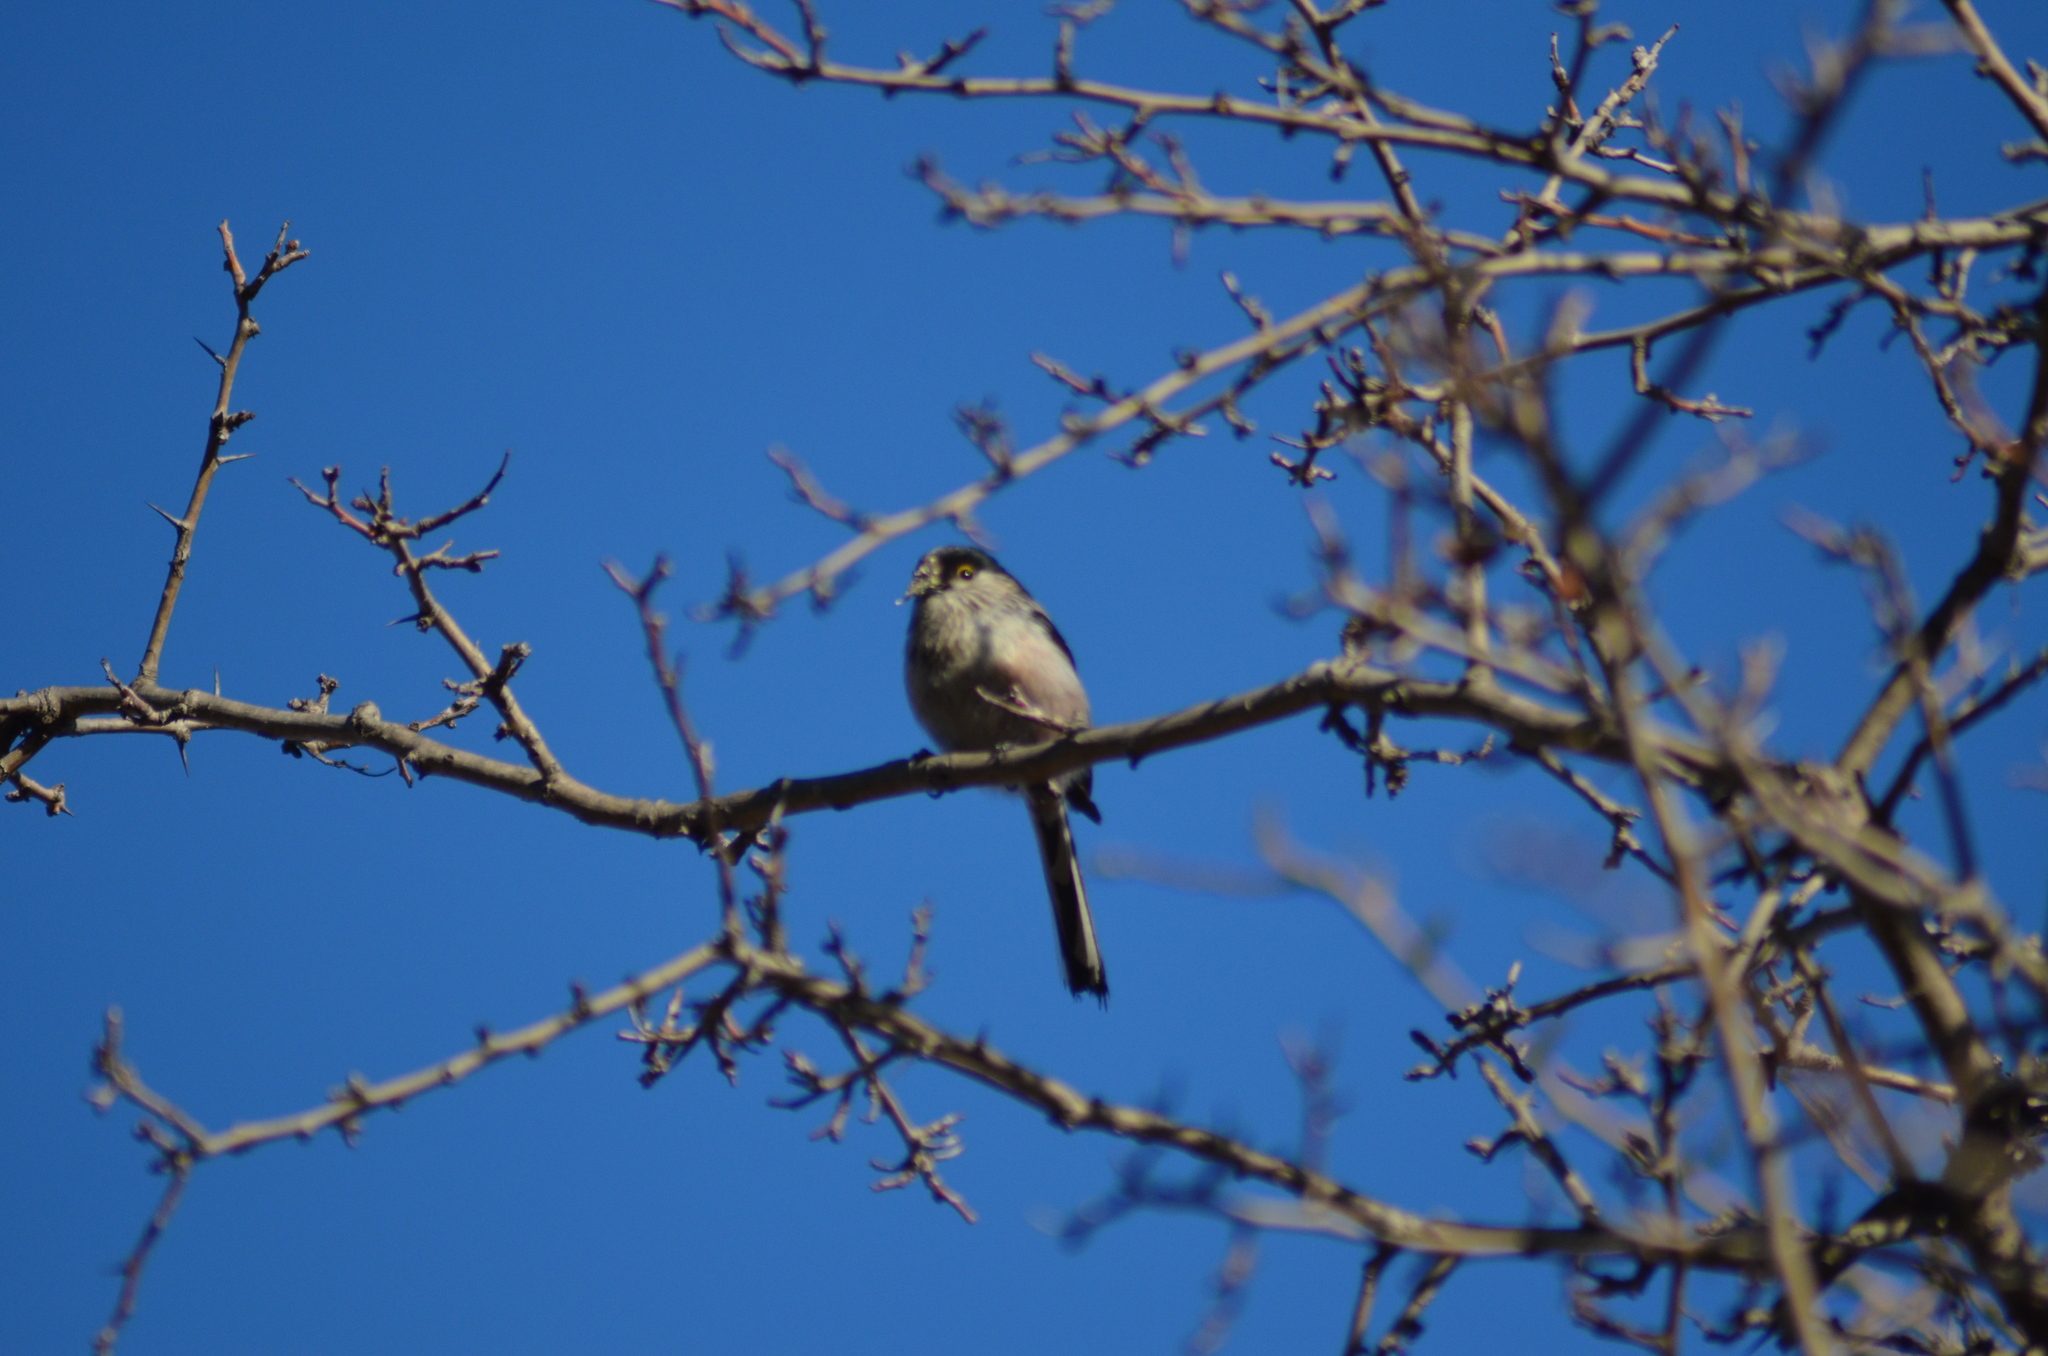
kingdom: Animalia
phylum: Chordata
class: Aves
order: Passeriformes
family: Aegithalidae
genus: Aegithalos
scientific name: Aegithalos caudatus
